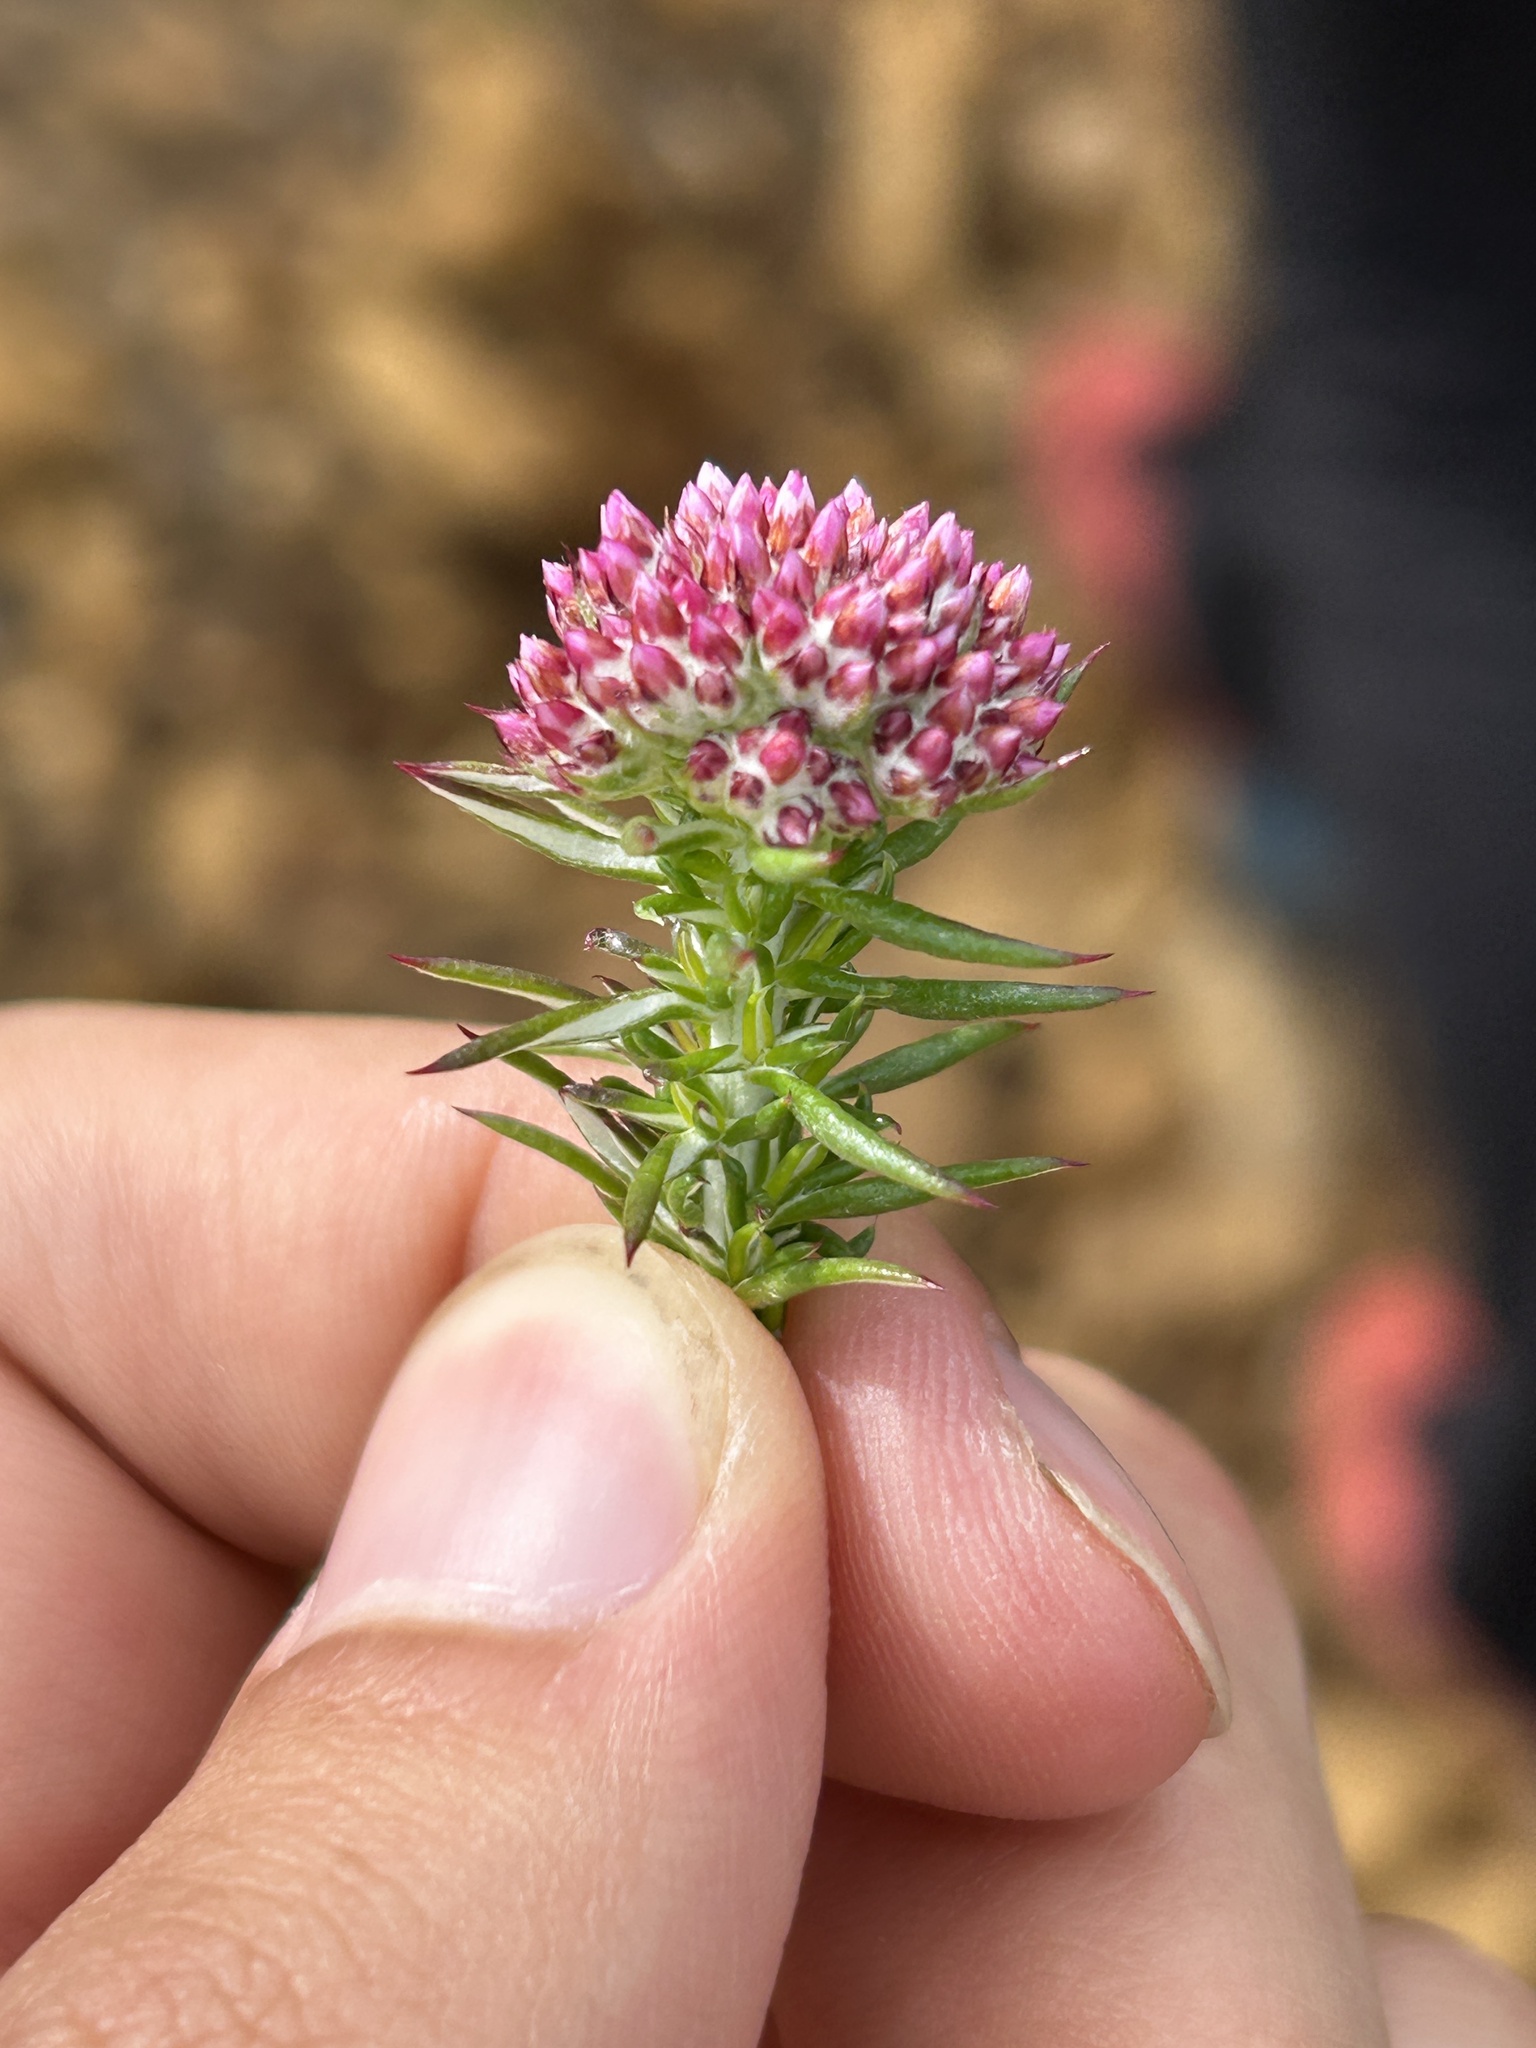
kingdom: Plantae
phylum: Tracheophyta
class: Magnoliopsida
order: Asterales
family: Asteraceae
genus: Metalasia
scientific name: Metalasia fastigiata
